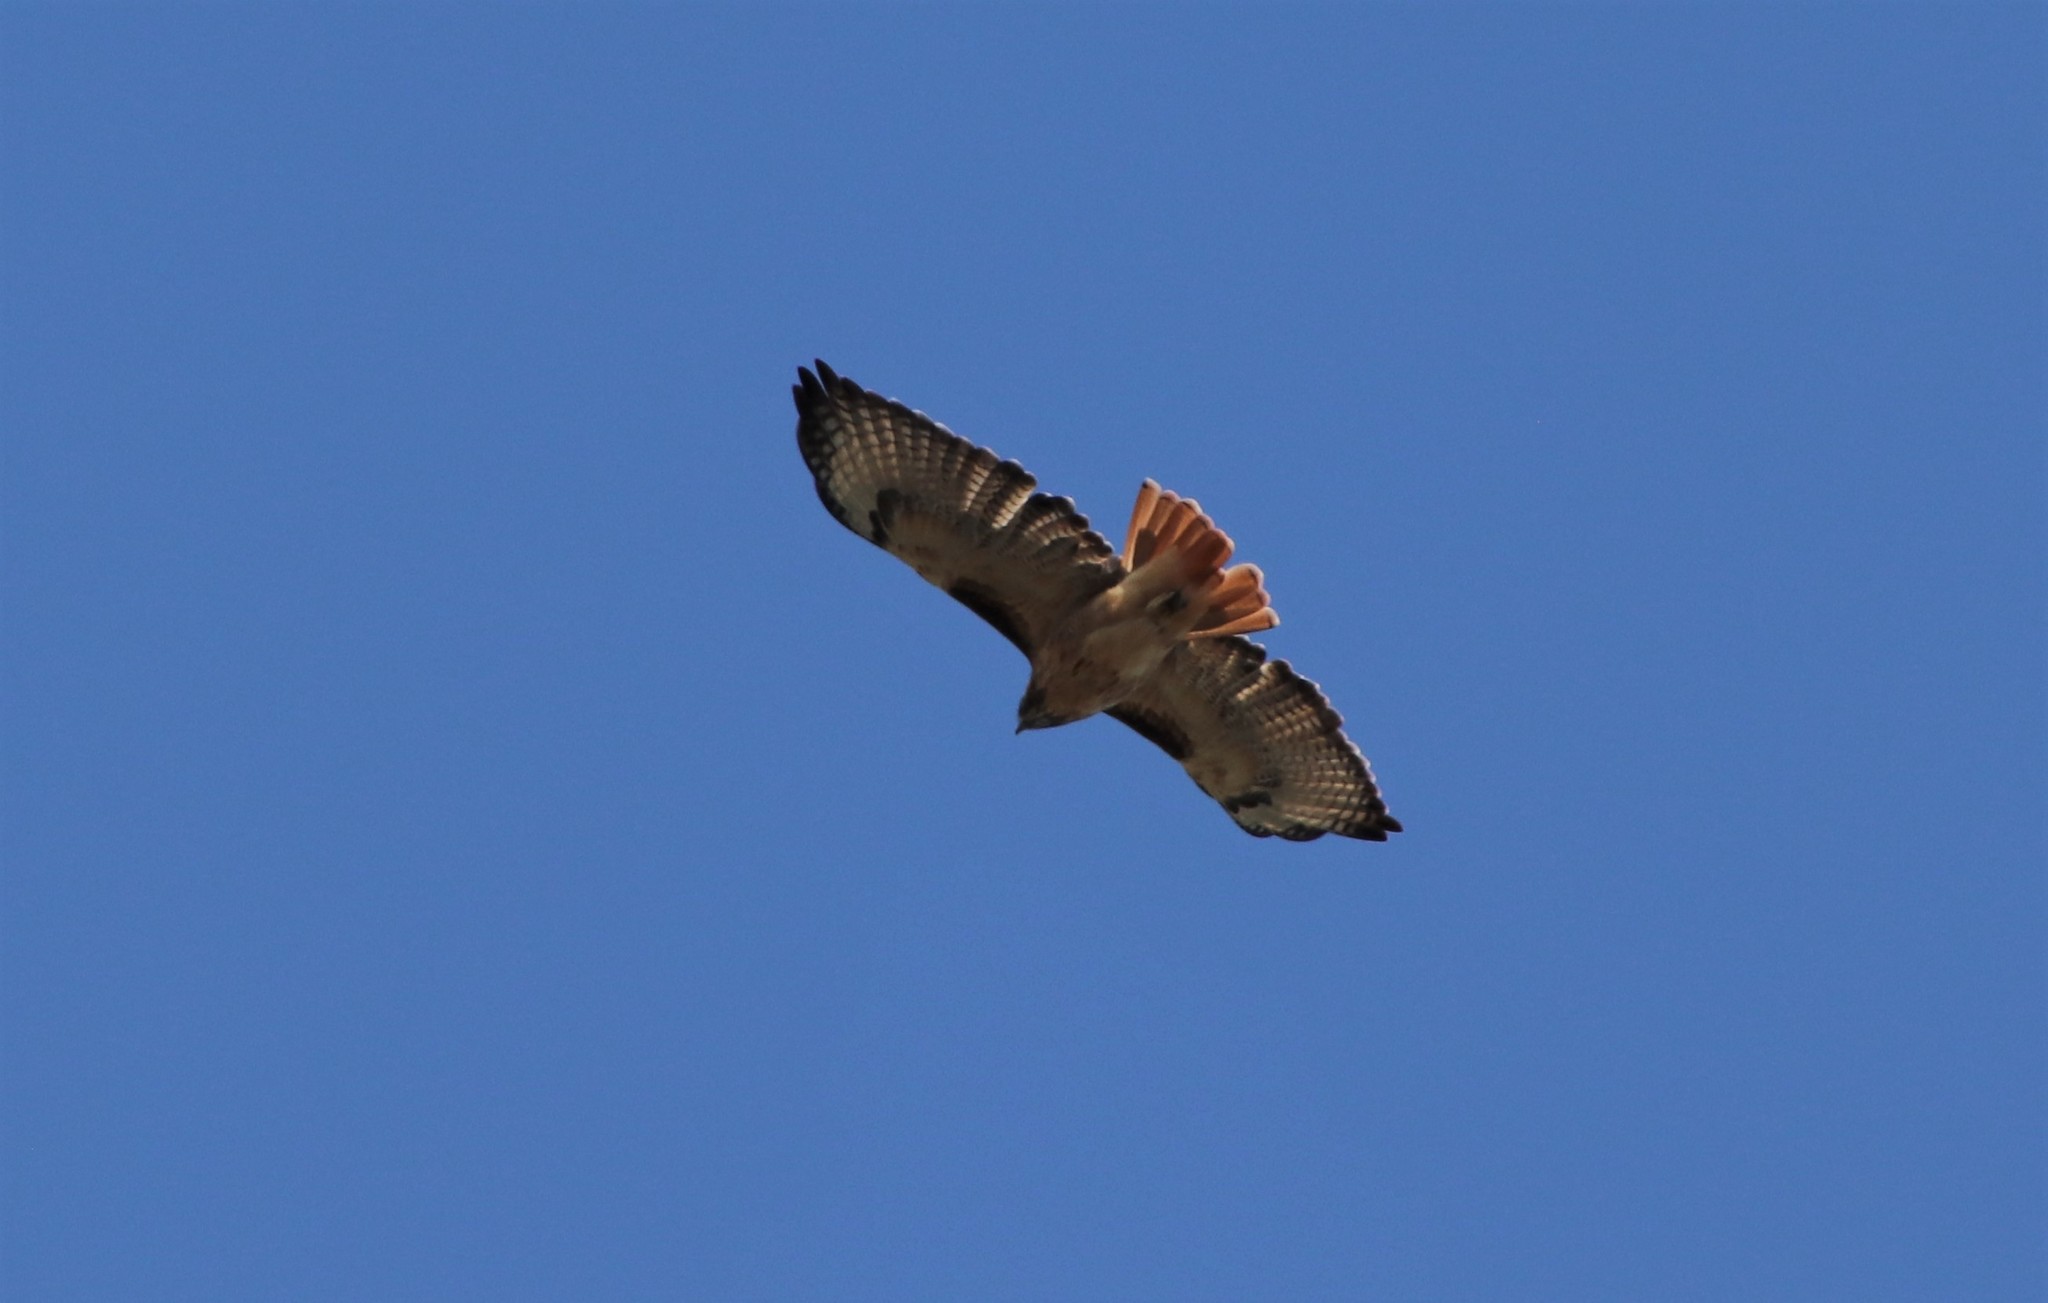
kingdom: Animalia
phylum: Chordata
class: Aves
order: Accipitriformes
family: Accipitridae
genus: Buteo
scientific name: Buteo jamaicensis
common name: Red-tailed hawk
